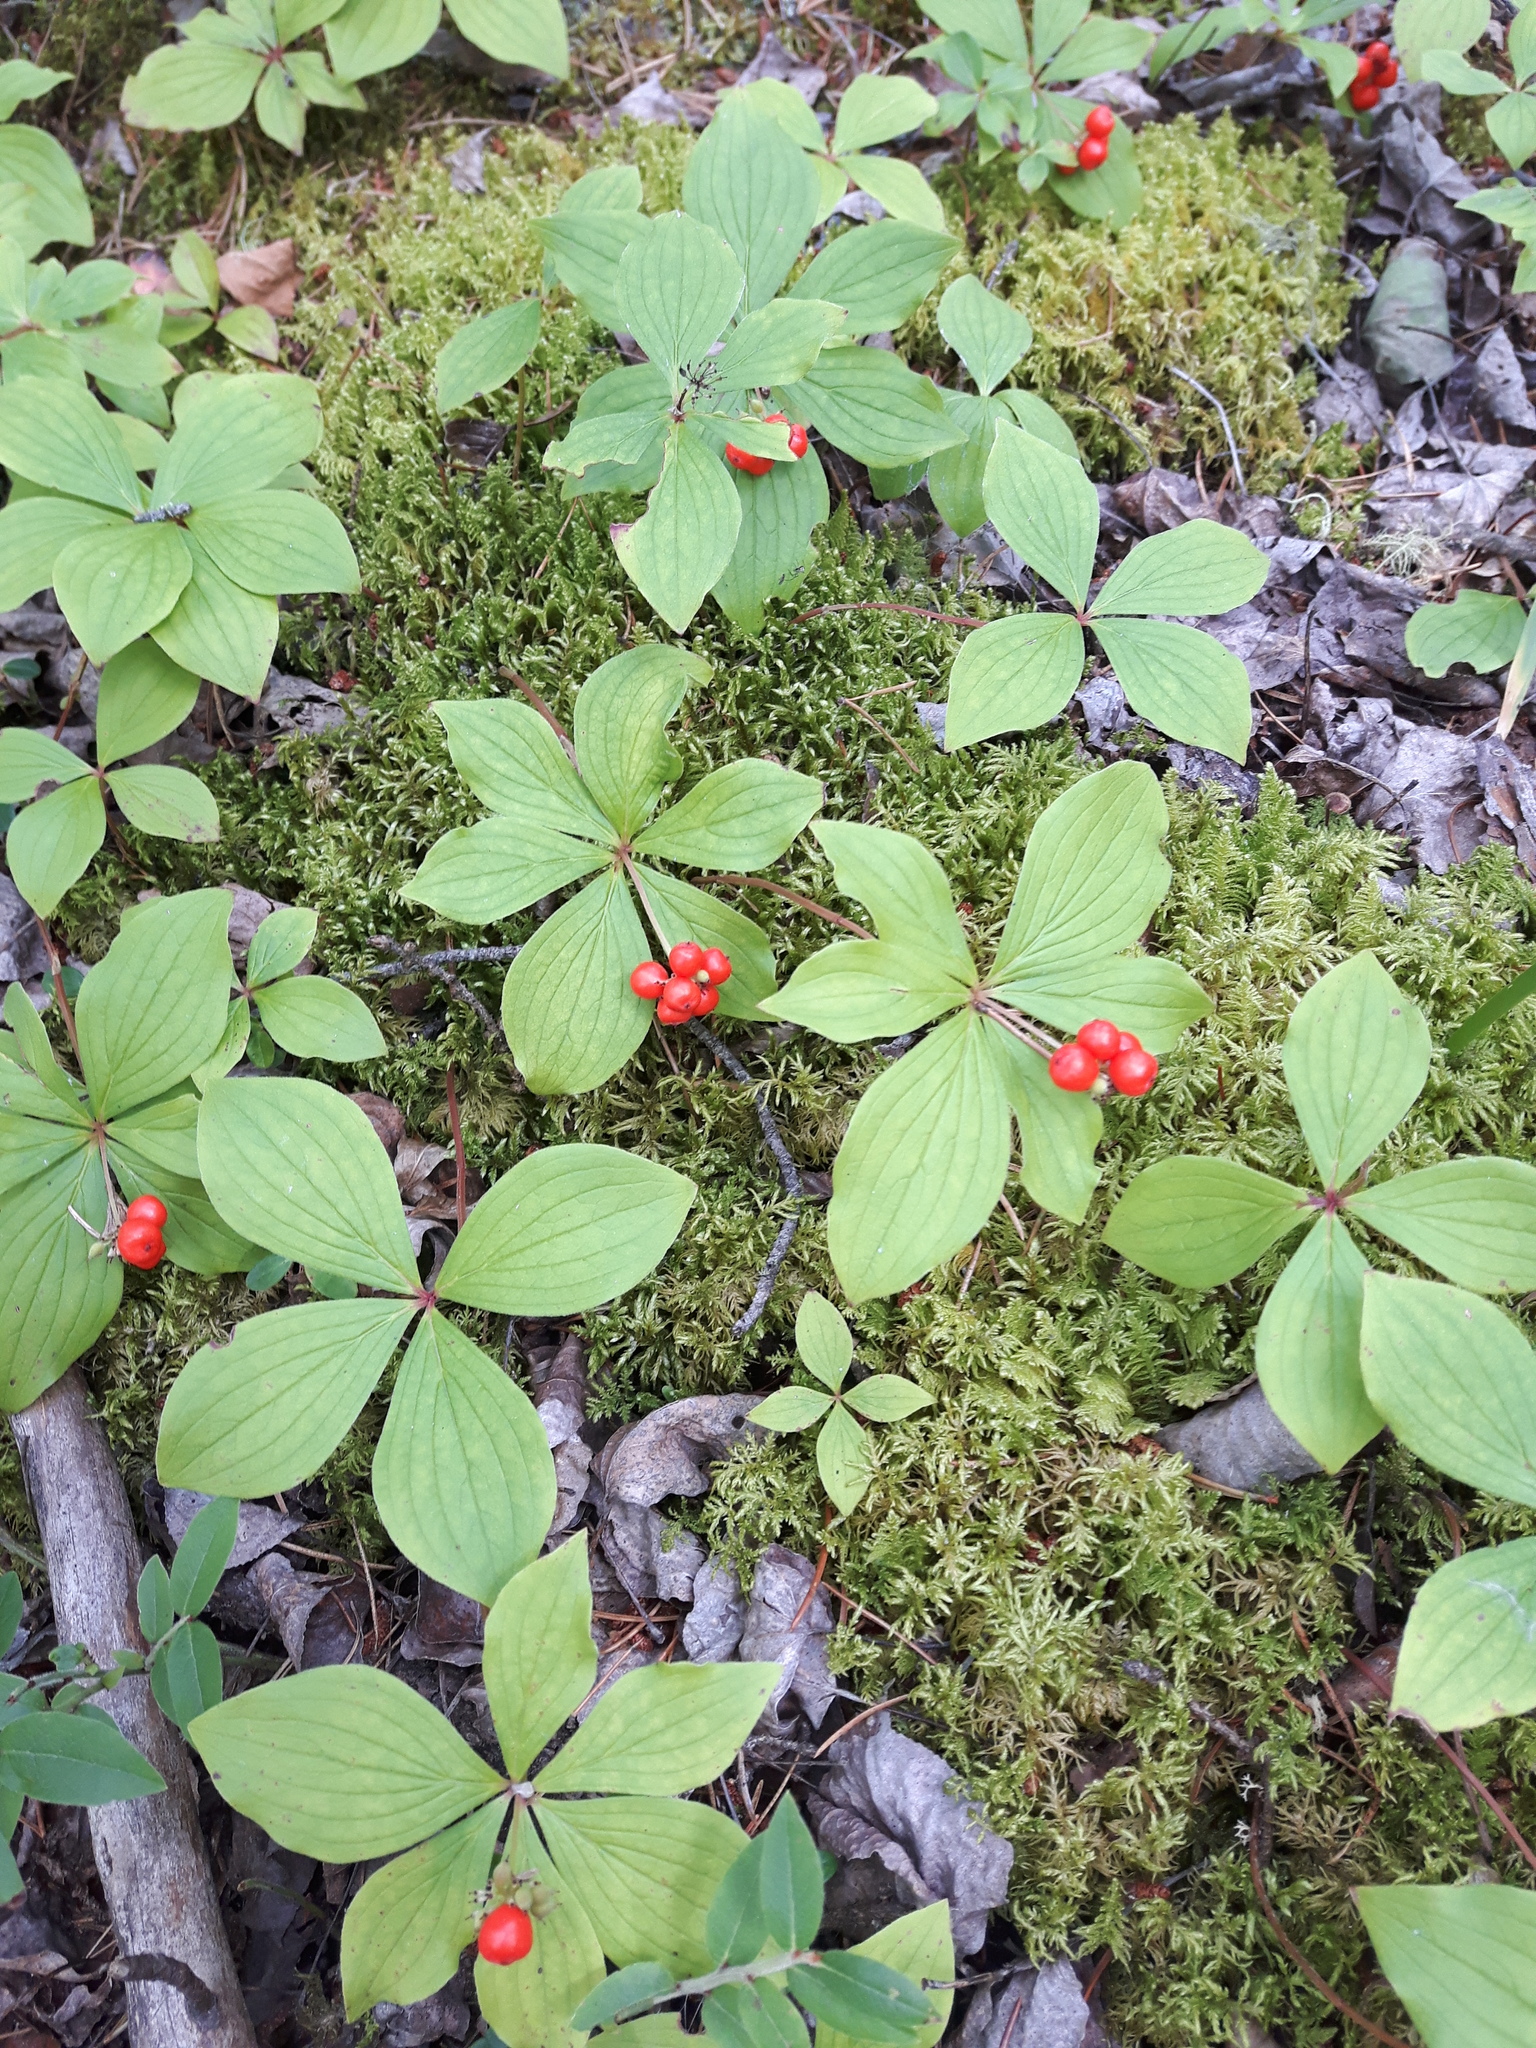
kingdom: Plantae
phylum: Tracheophyta
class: Magnoliopsida
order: Cornales
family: Cornaceae
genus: Cornus
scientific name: Cornus canadensis
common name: Creeping dogwood
